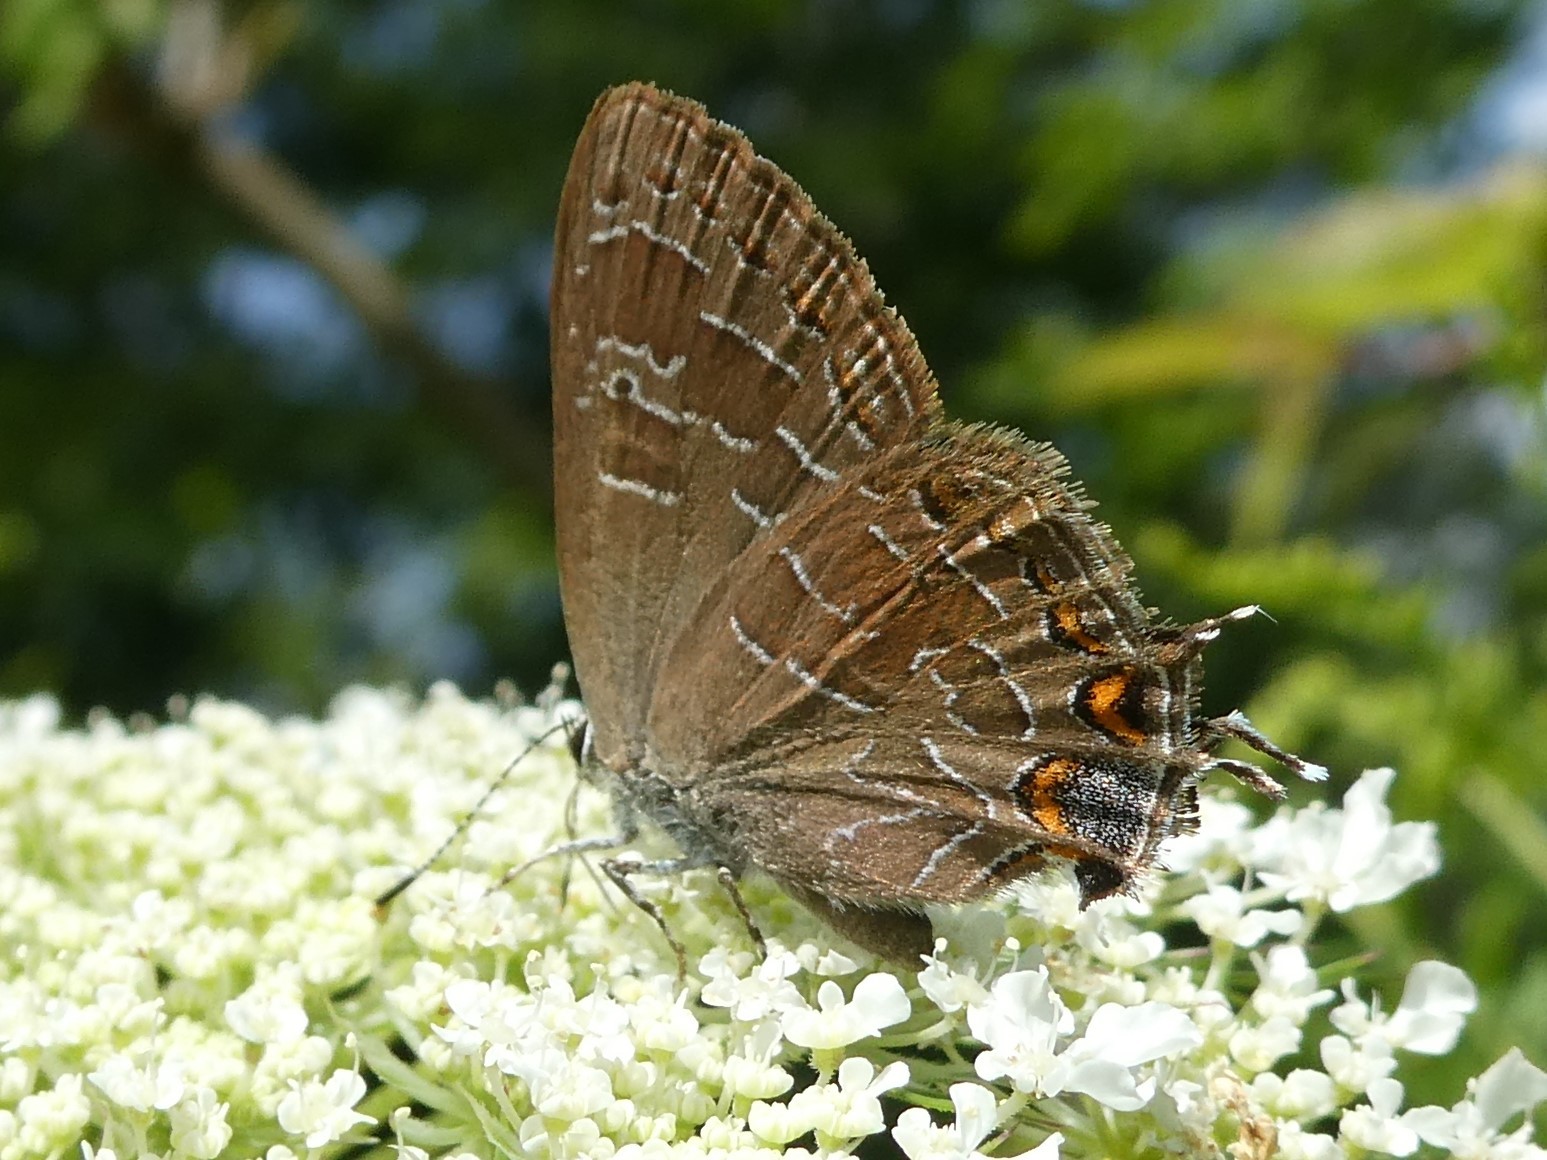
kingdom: Animalia
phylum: Arthropoda
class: Insecta
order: Lepidoptera
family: Lycaenidae
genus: Satyrium
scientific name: Satyrium liparops
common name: Striped hairstreak
